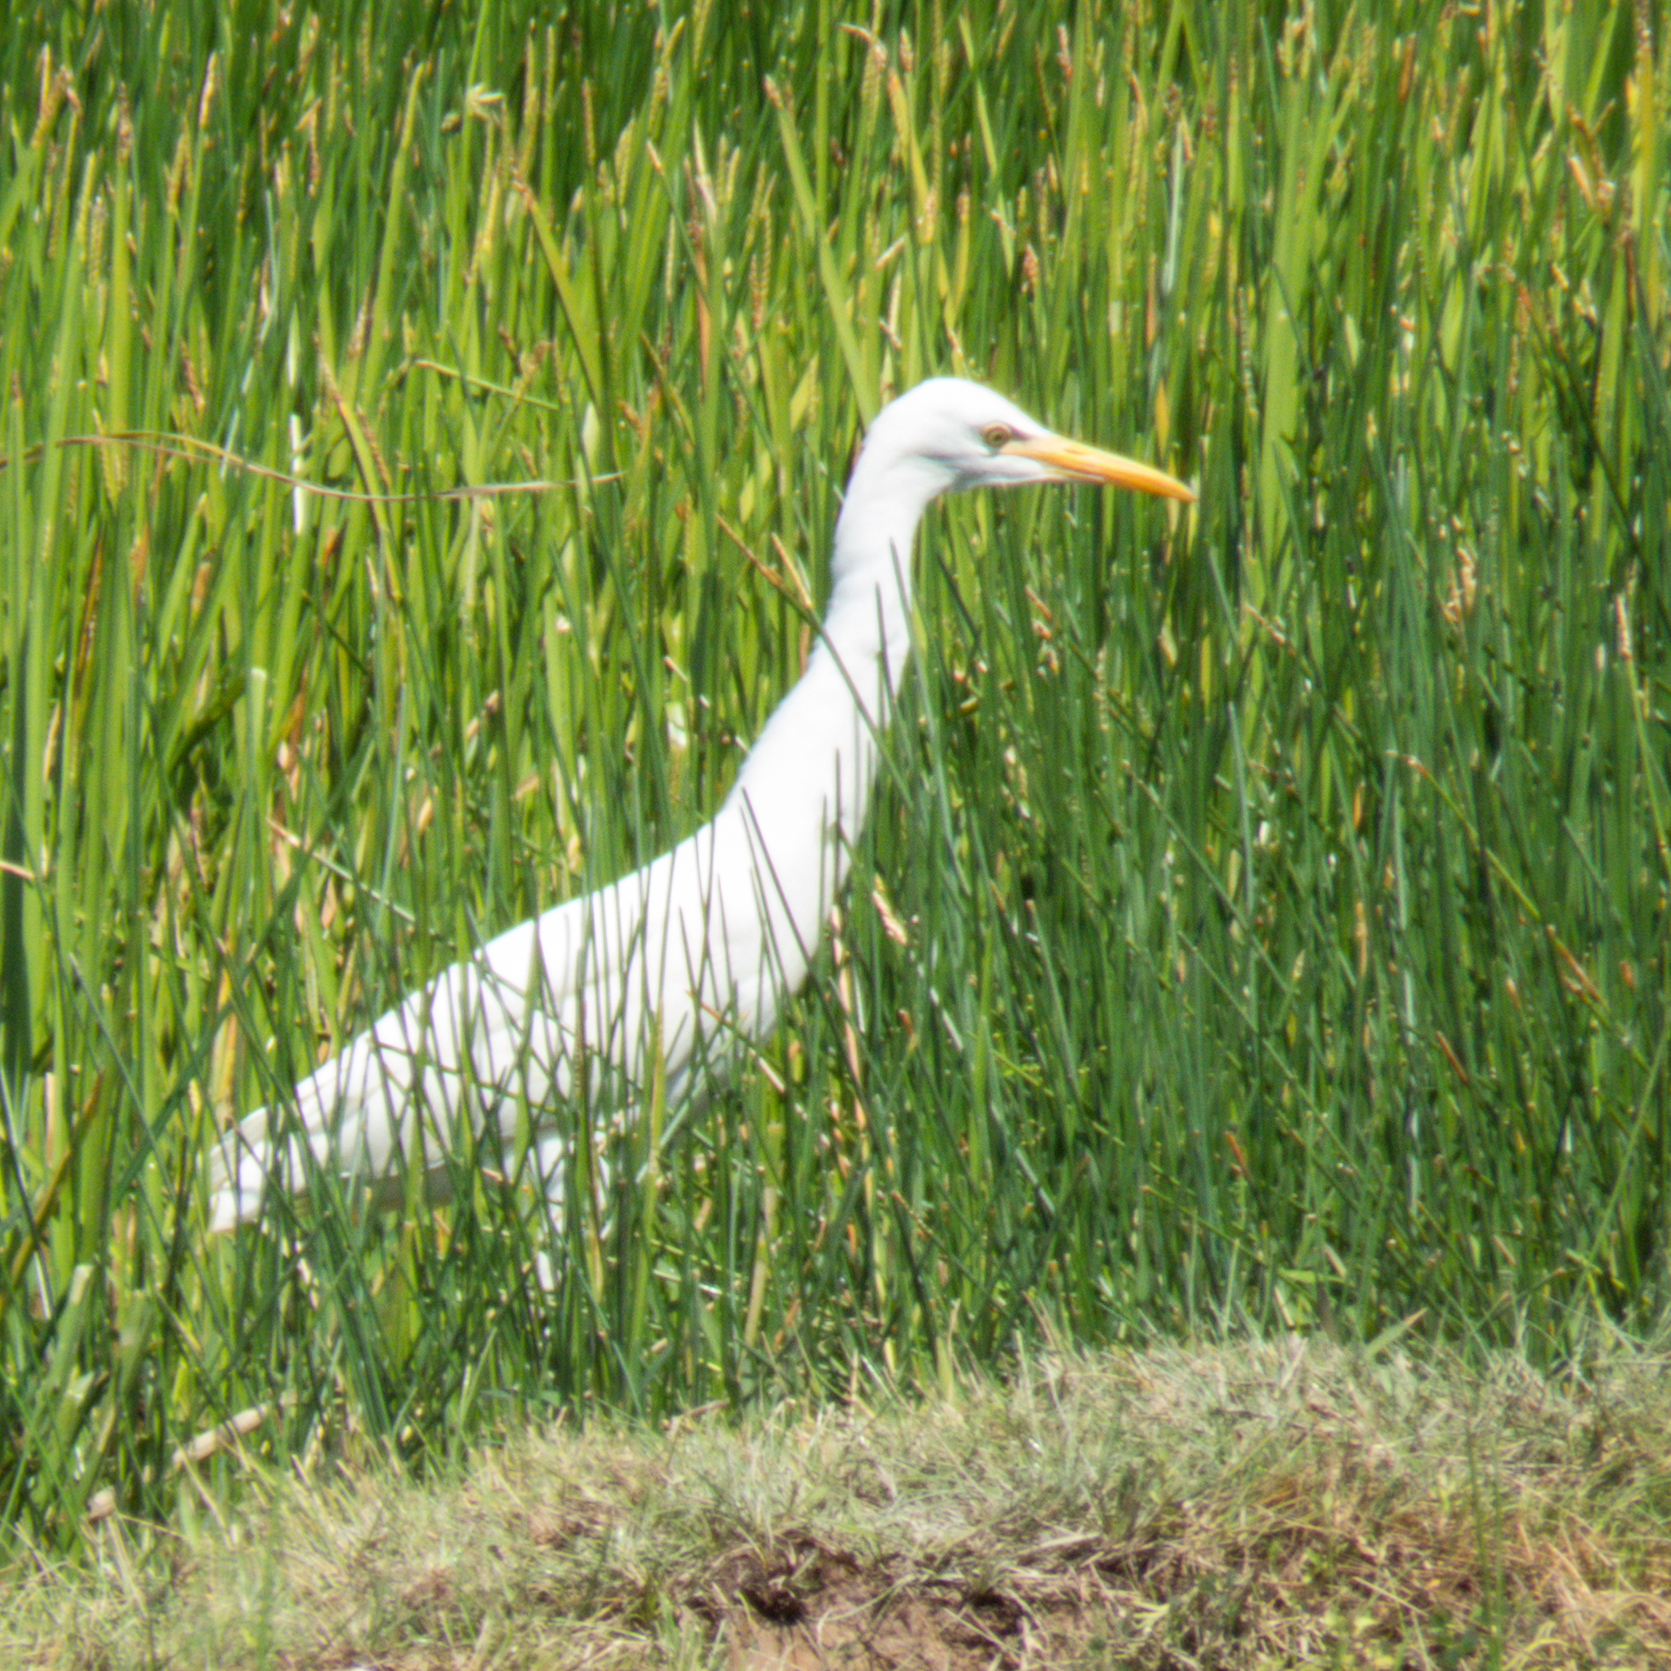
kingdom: Animalia
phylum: Chordata
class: Aves
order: Pelecaniformes
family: Ardeidae
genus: Bubulcus
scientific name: Bubulcus coromandus
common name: Eastern cattle egret
